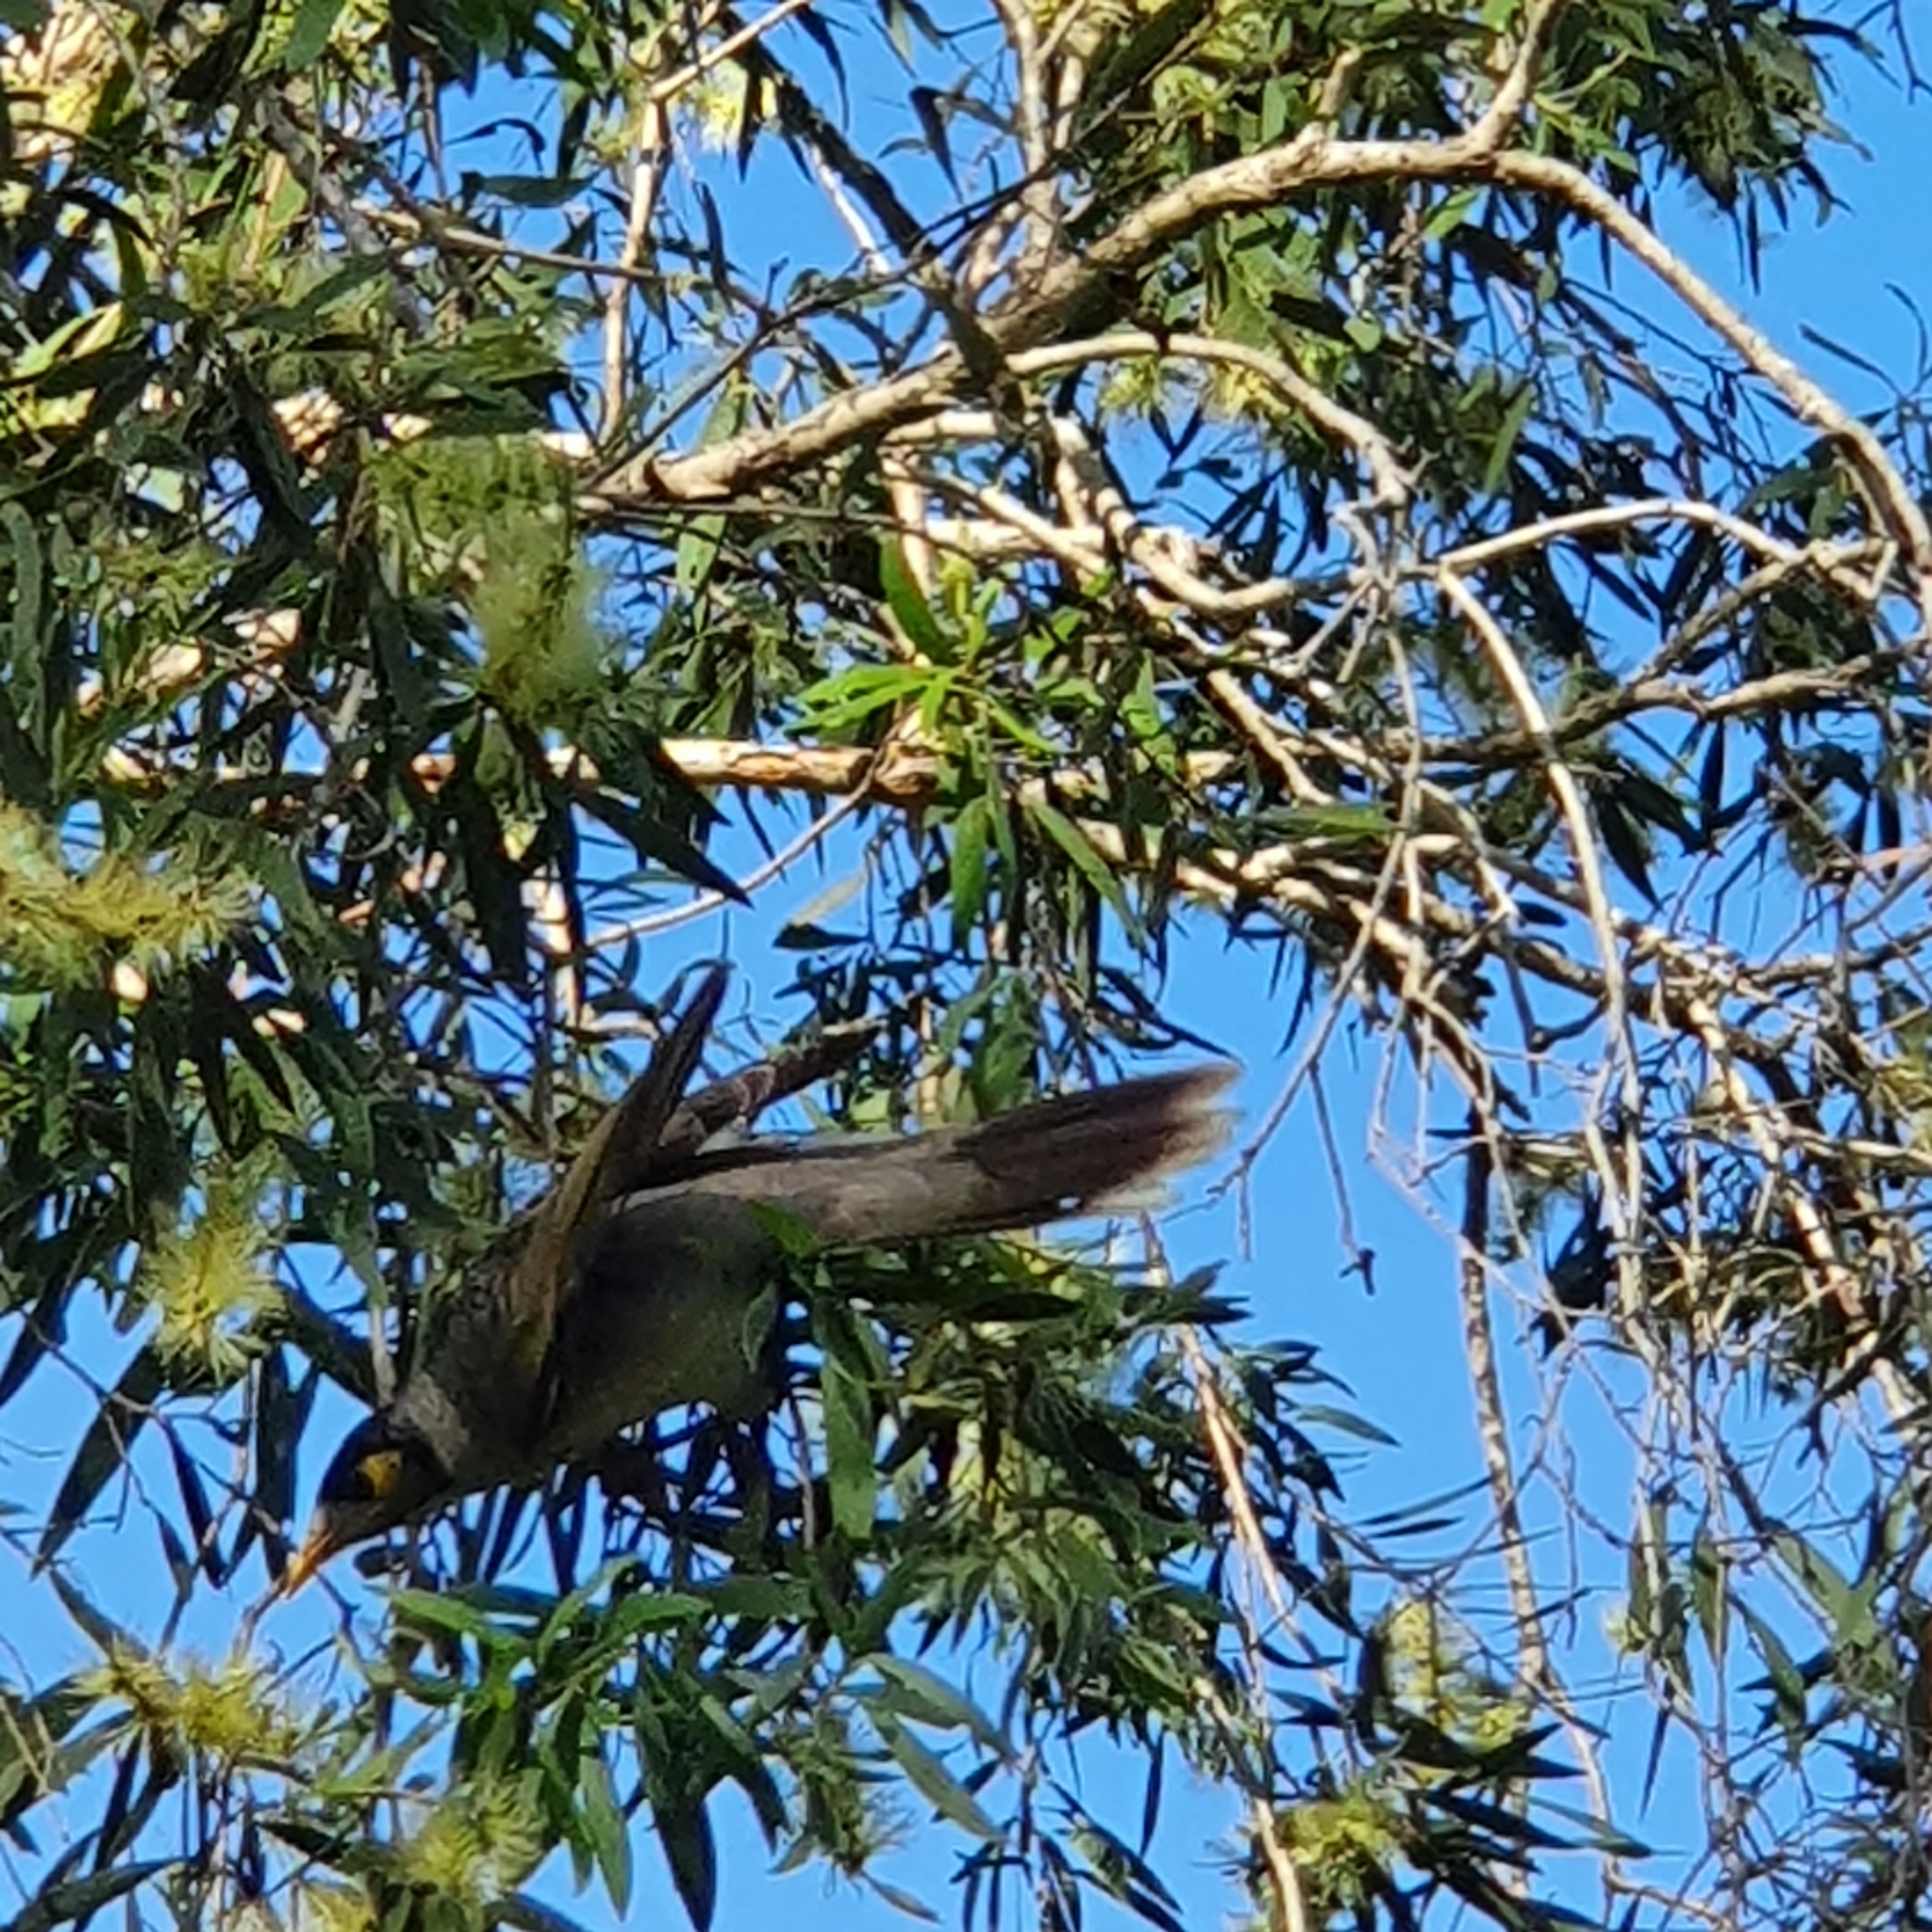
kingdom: Animalia
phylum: Chordata
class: Aves
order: Passeriformes
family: Meliphagidae
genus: Manorina
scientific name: Manorina melanocephala
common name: Noisy miner
